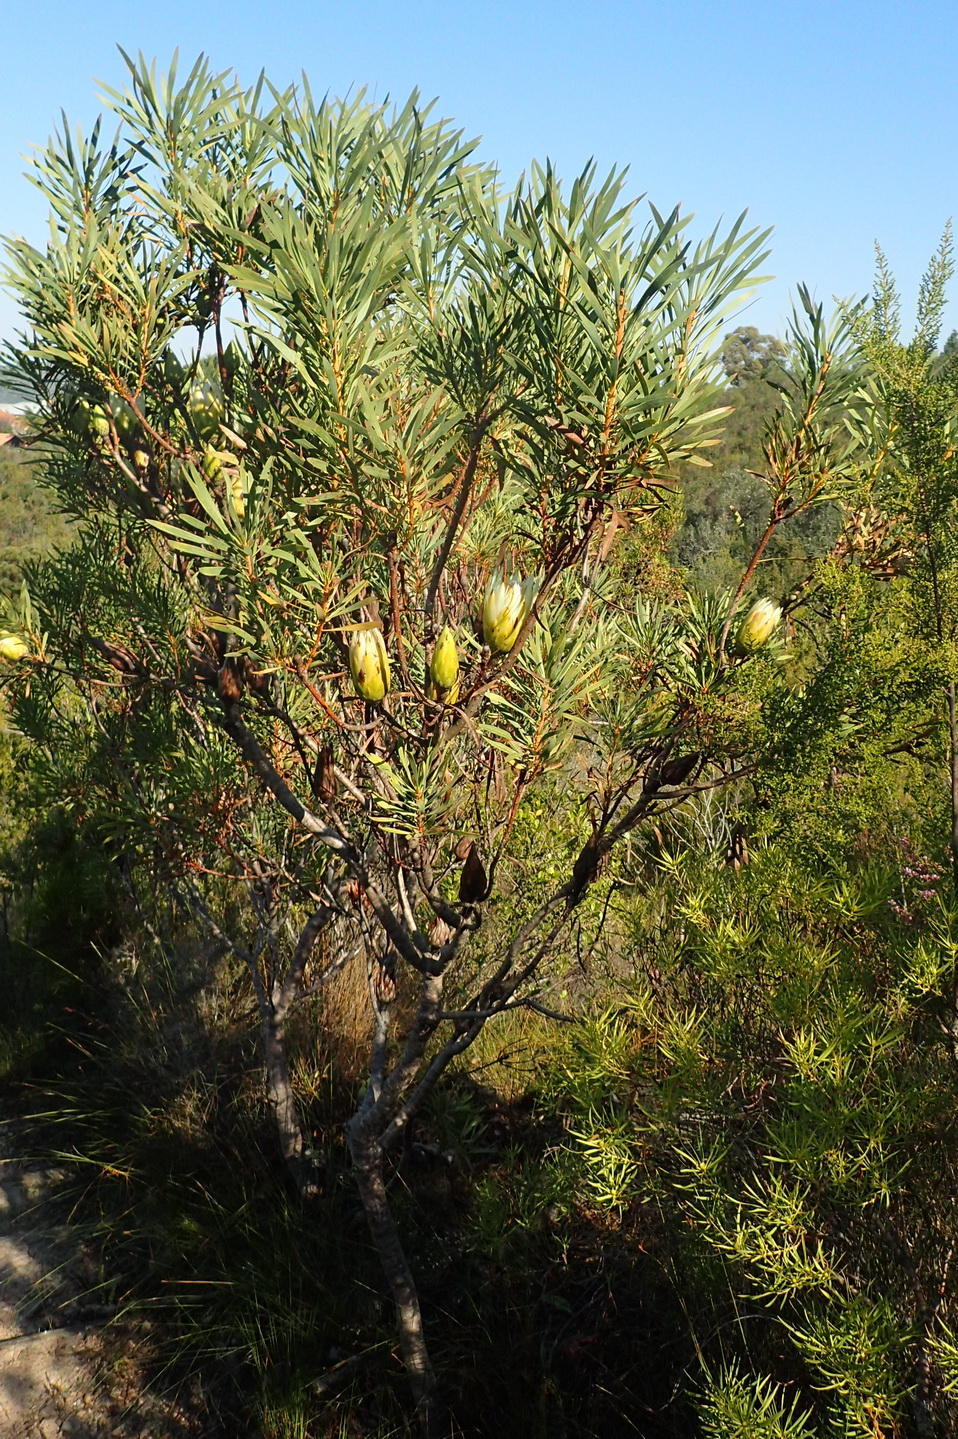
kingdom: Plantae
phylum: Tracheophyta
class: Magnoliopsida
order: Proteales
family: Proteaceae
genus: Protea
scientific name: Protea repens
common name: Sugarbush
